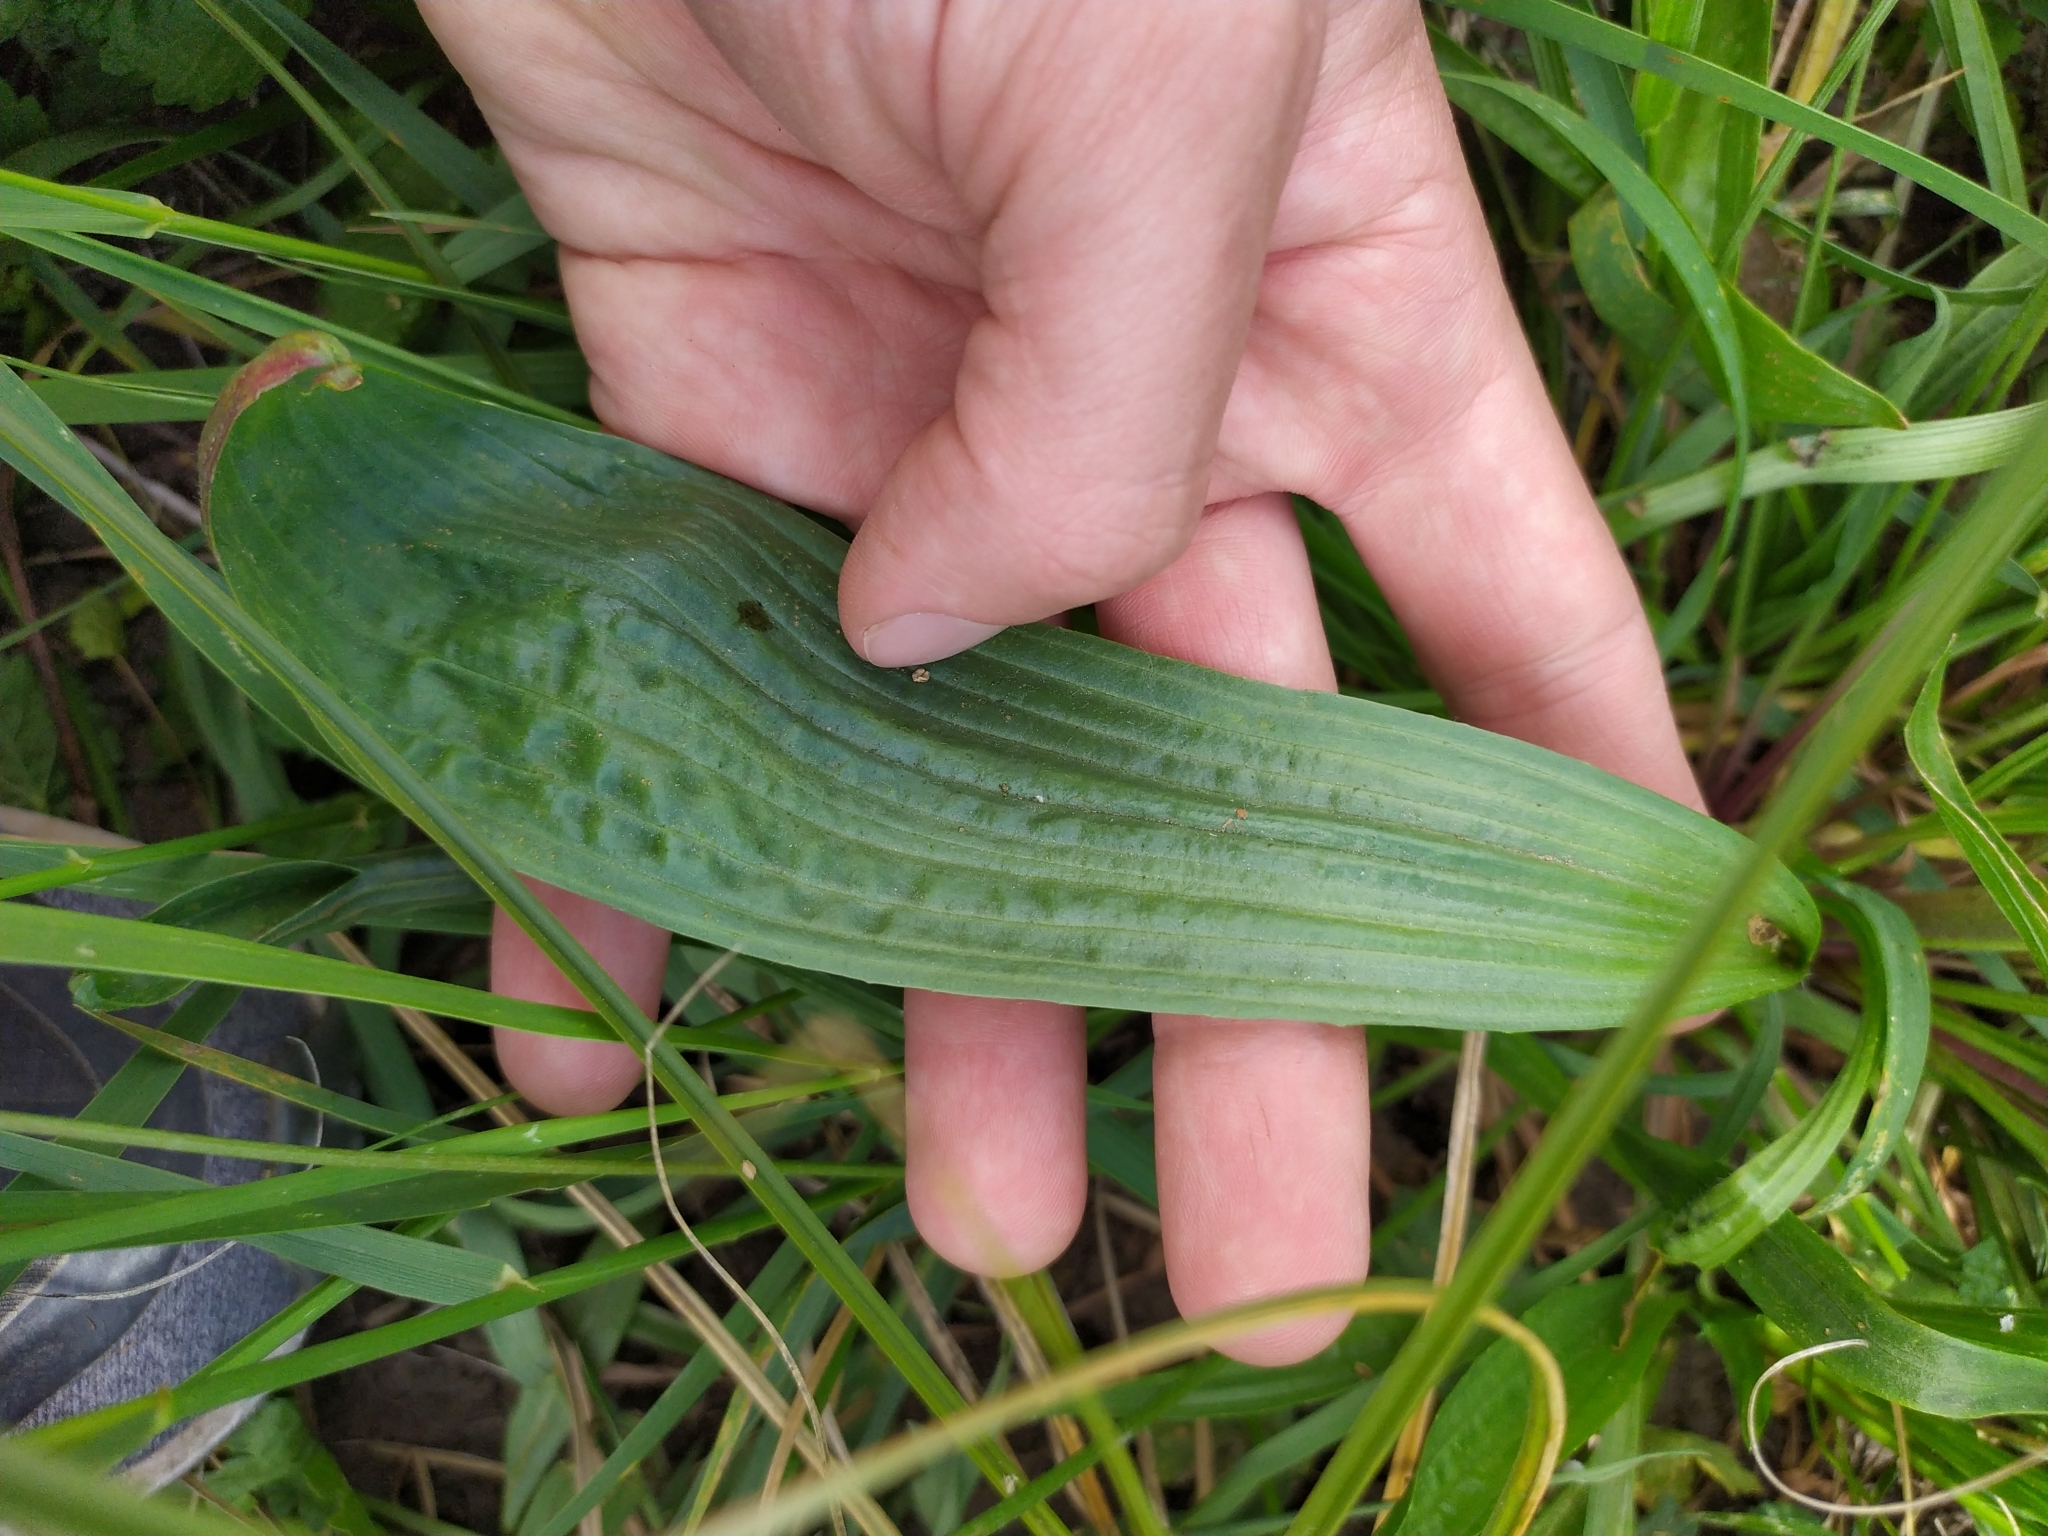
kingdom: Plantae
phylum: Tracheophyta
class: Magnoliopsida
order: Lamiales
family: Plantaginaceae
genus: Plantago
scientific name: Plantago lanceolata
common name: Ribwort plantain
